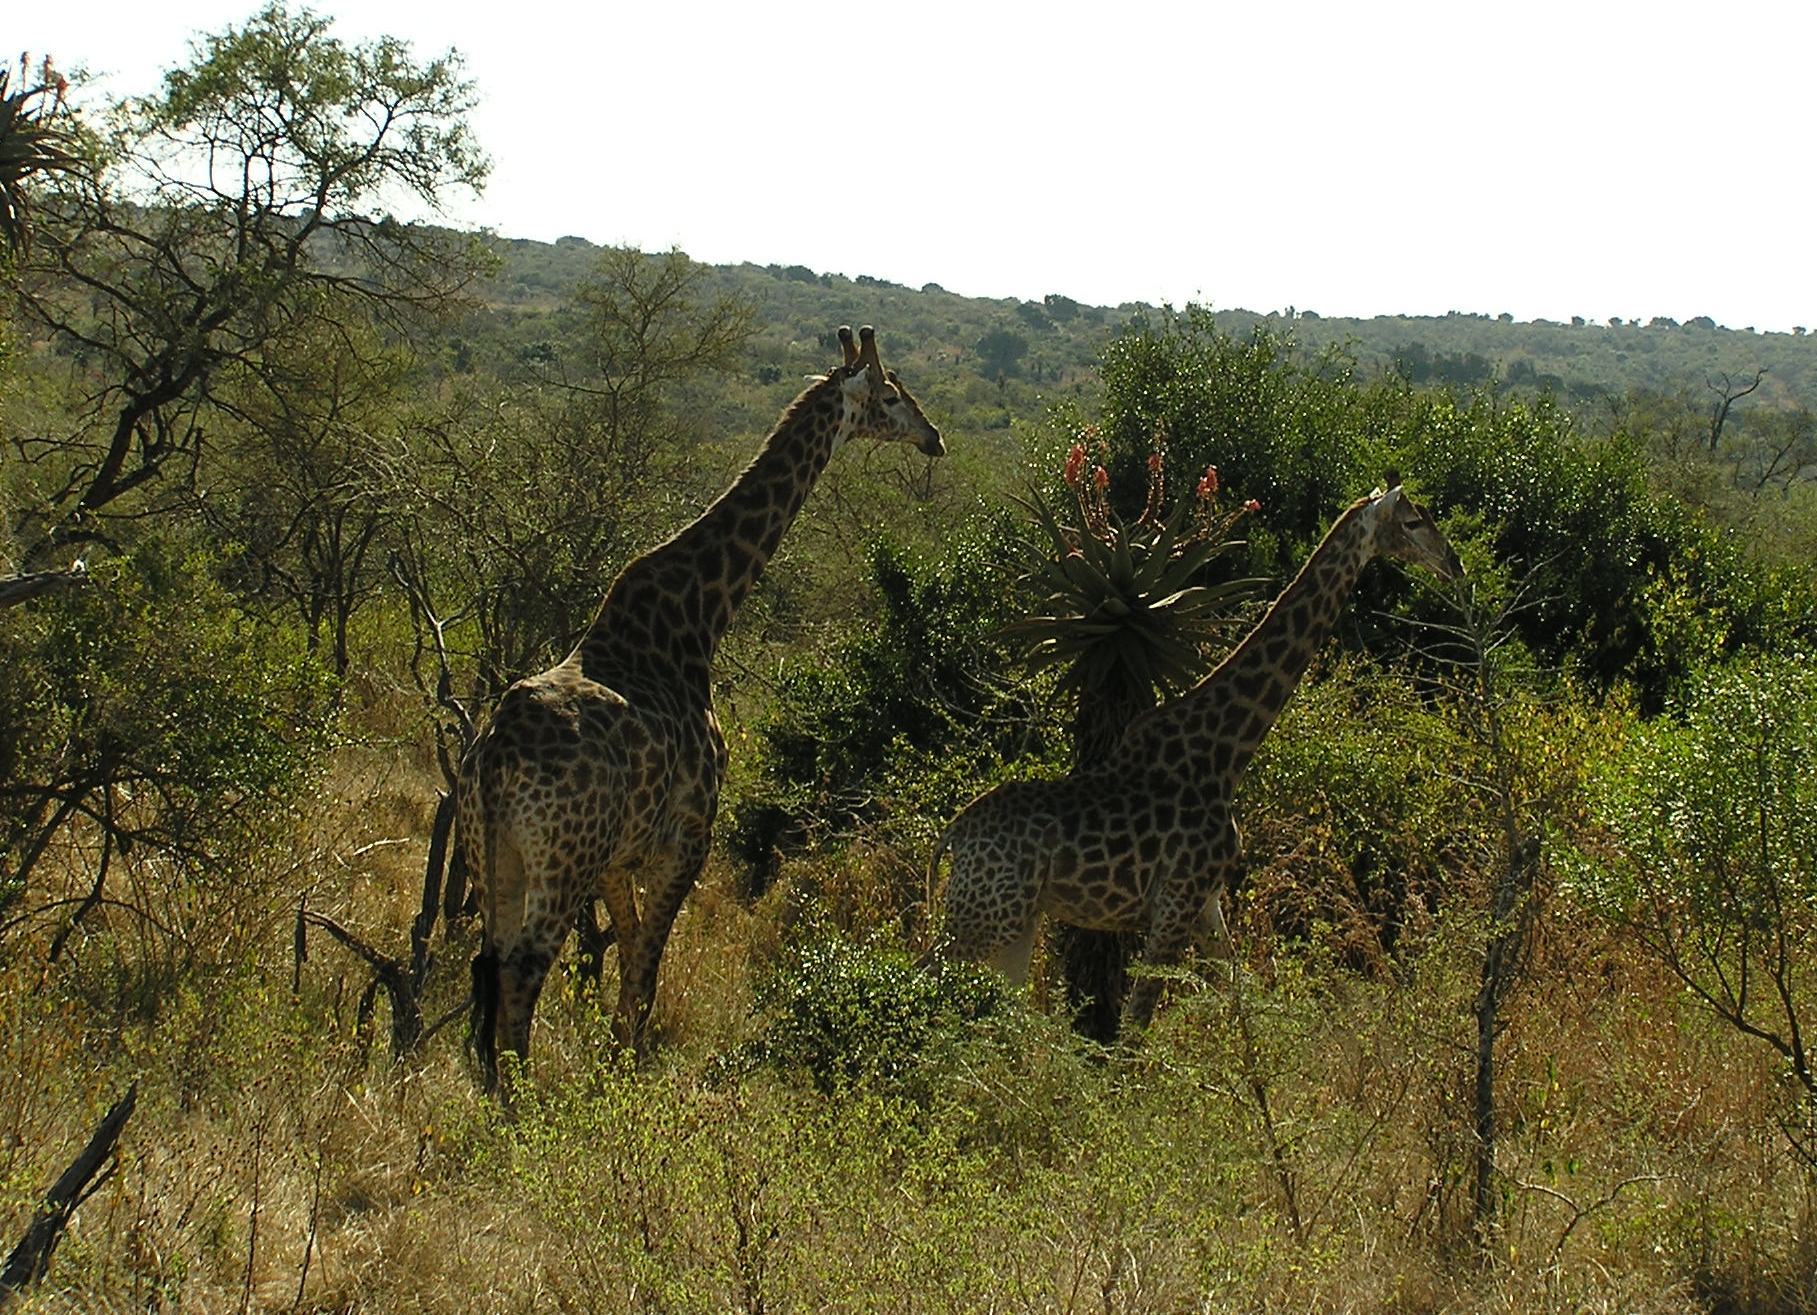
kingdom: Animalia
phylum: Chordata
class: Mammalia
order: Artiodactyla
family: Giraffidae
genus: Giraffa
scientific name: Giraffa giraffa
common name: Southern giraffe
